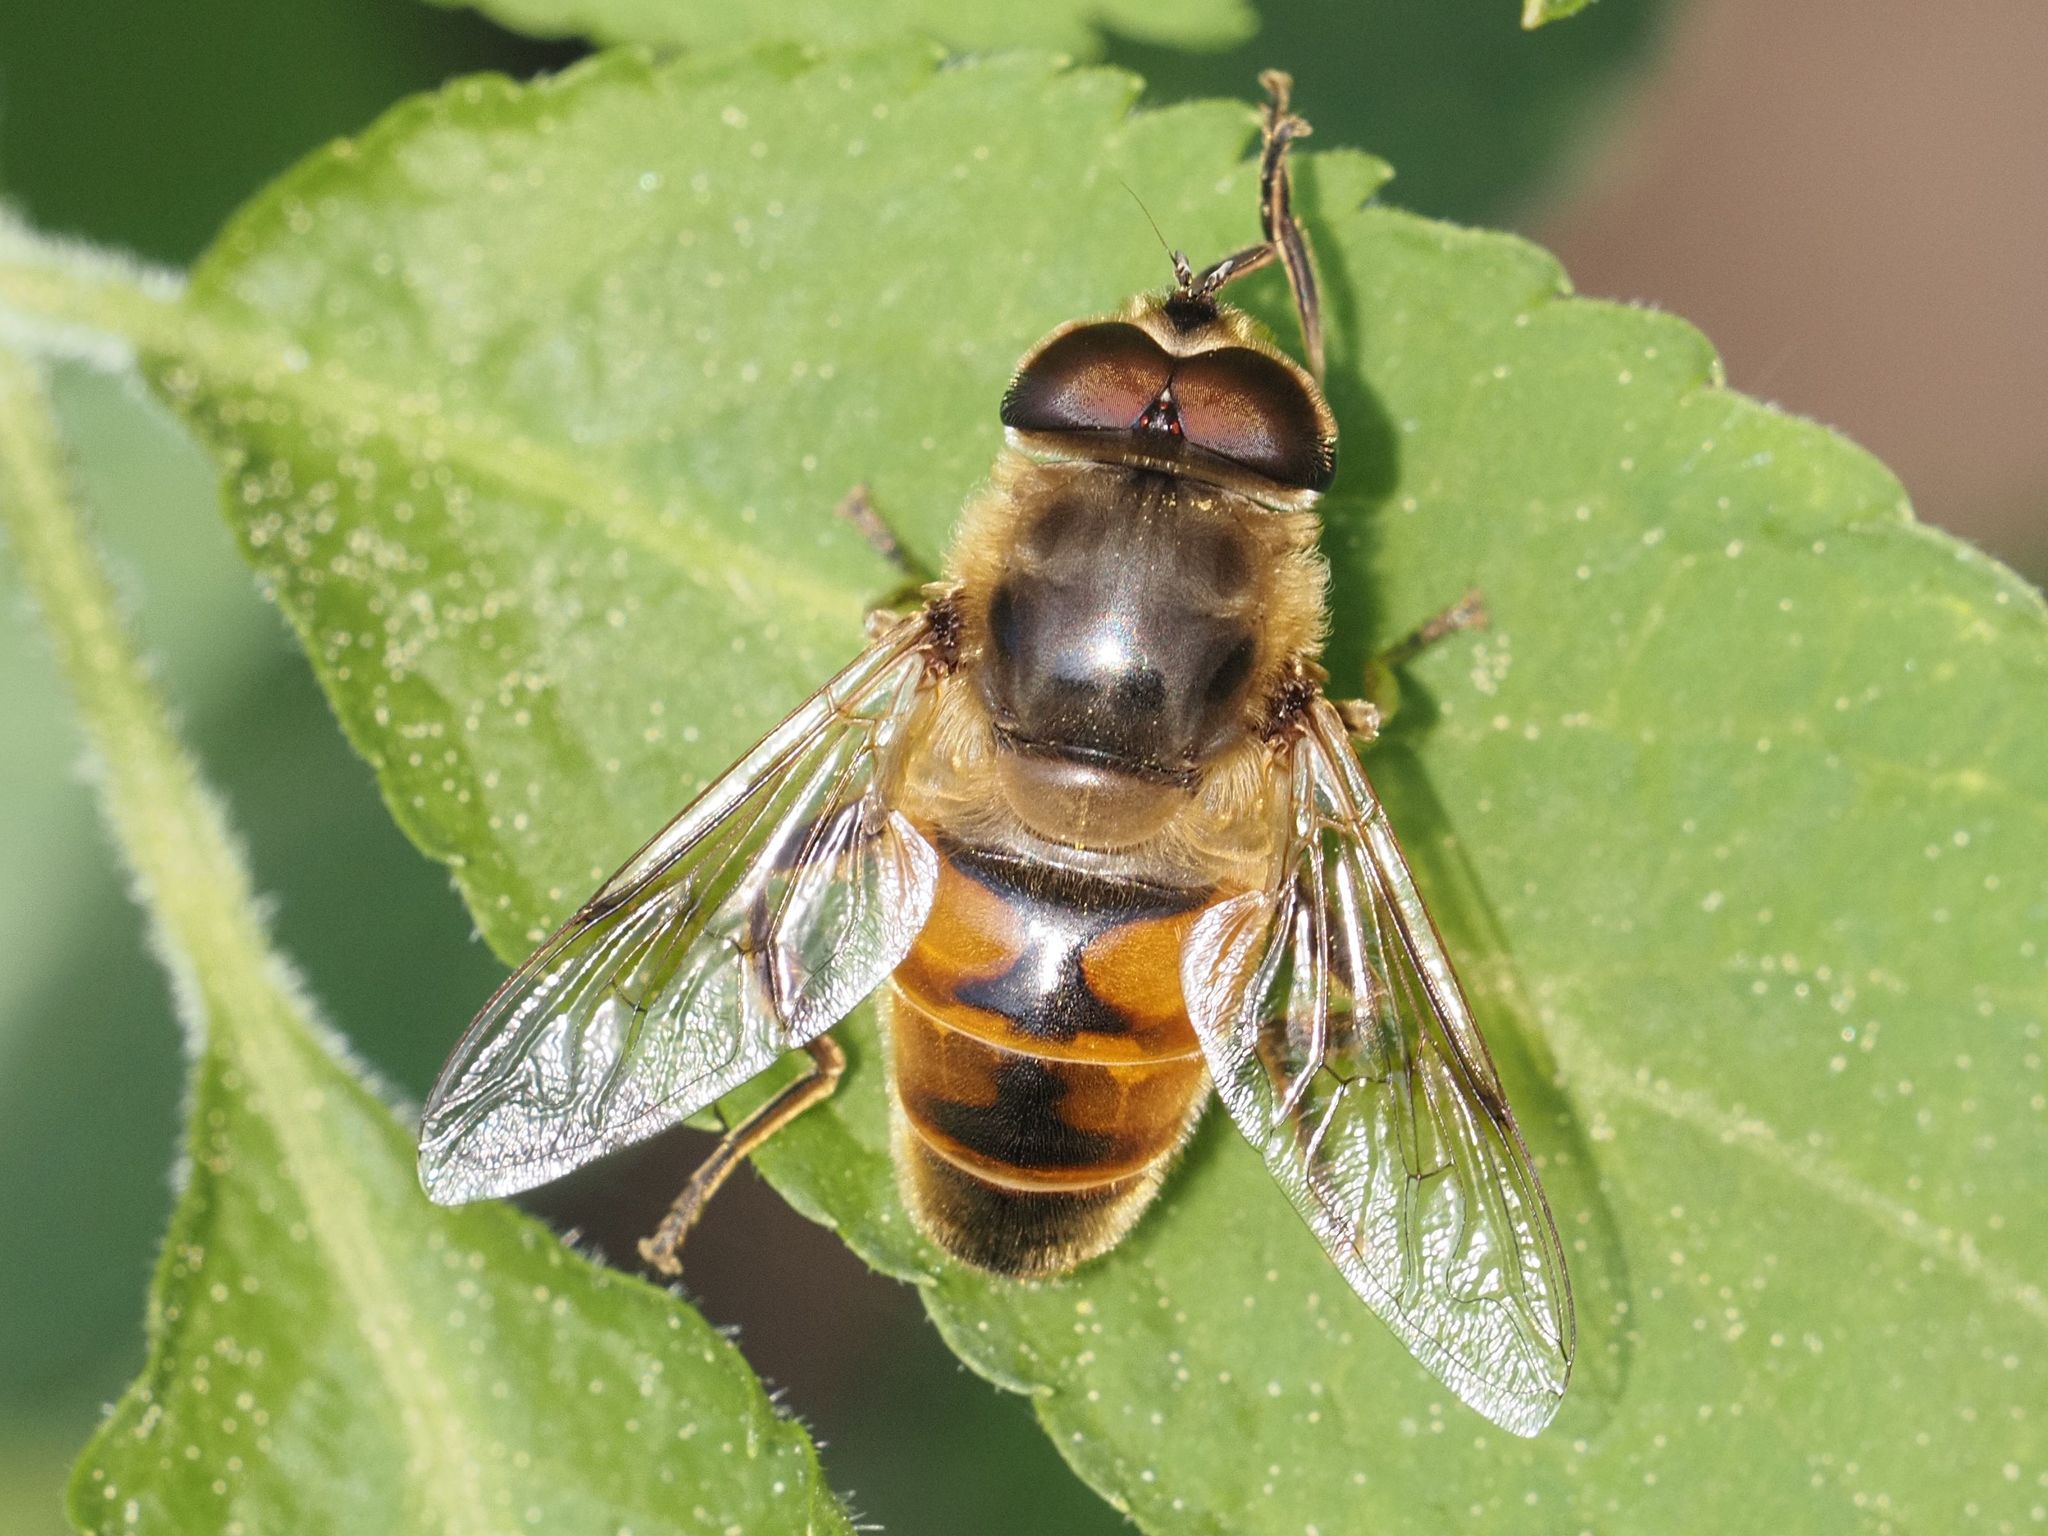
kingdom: Animalia
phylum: Arthropoda
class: Insecta
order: Diptera
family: Syrphidae
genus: Eristalis
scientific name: Eristalis tenax
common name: Drone fly
